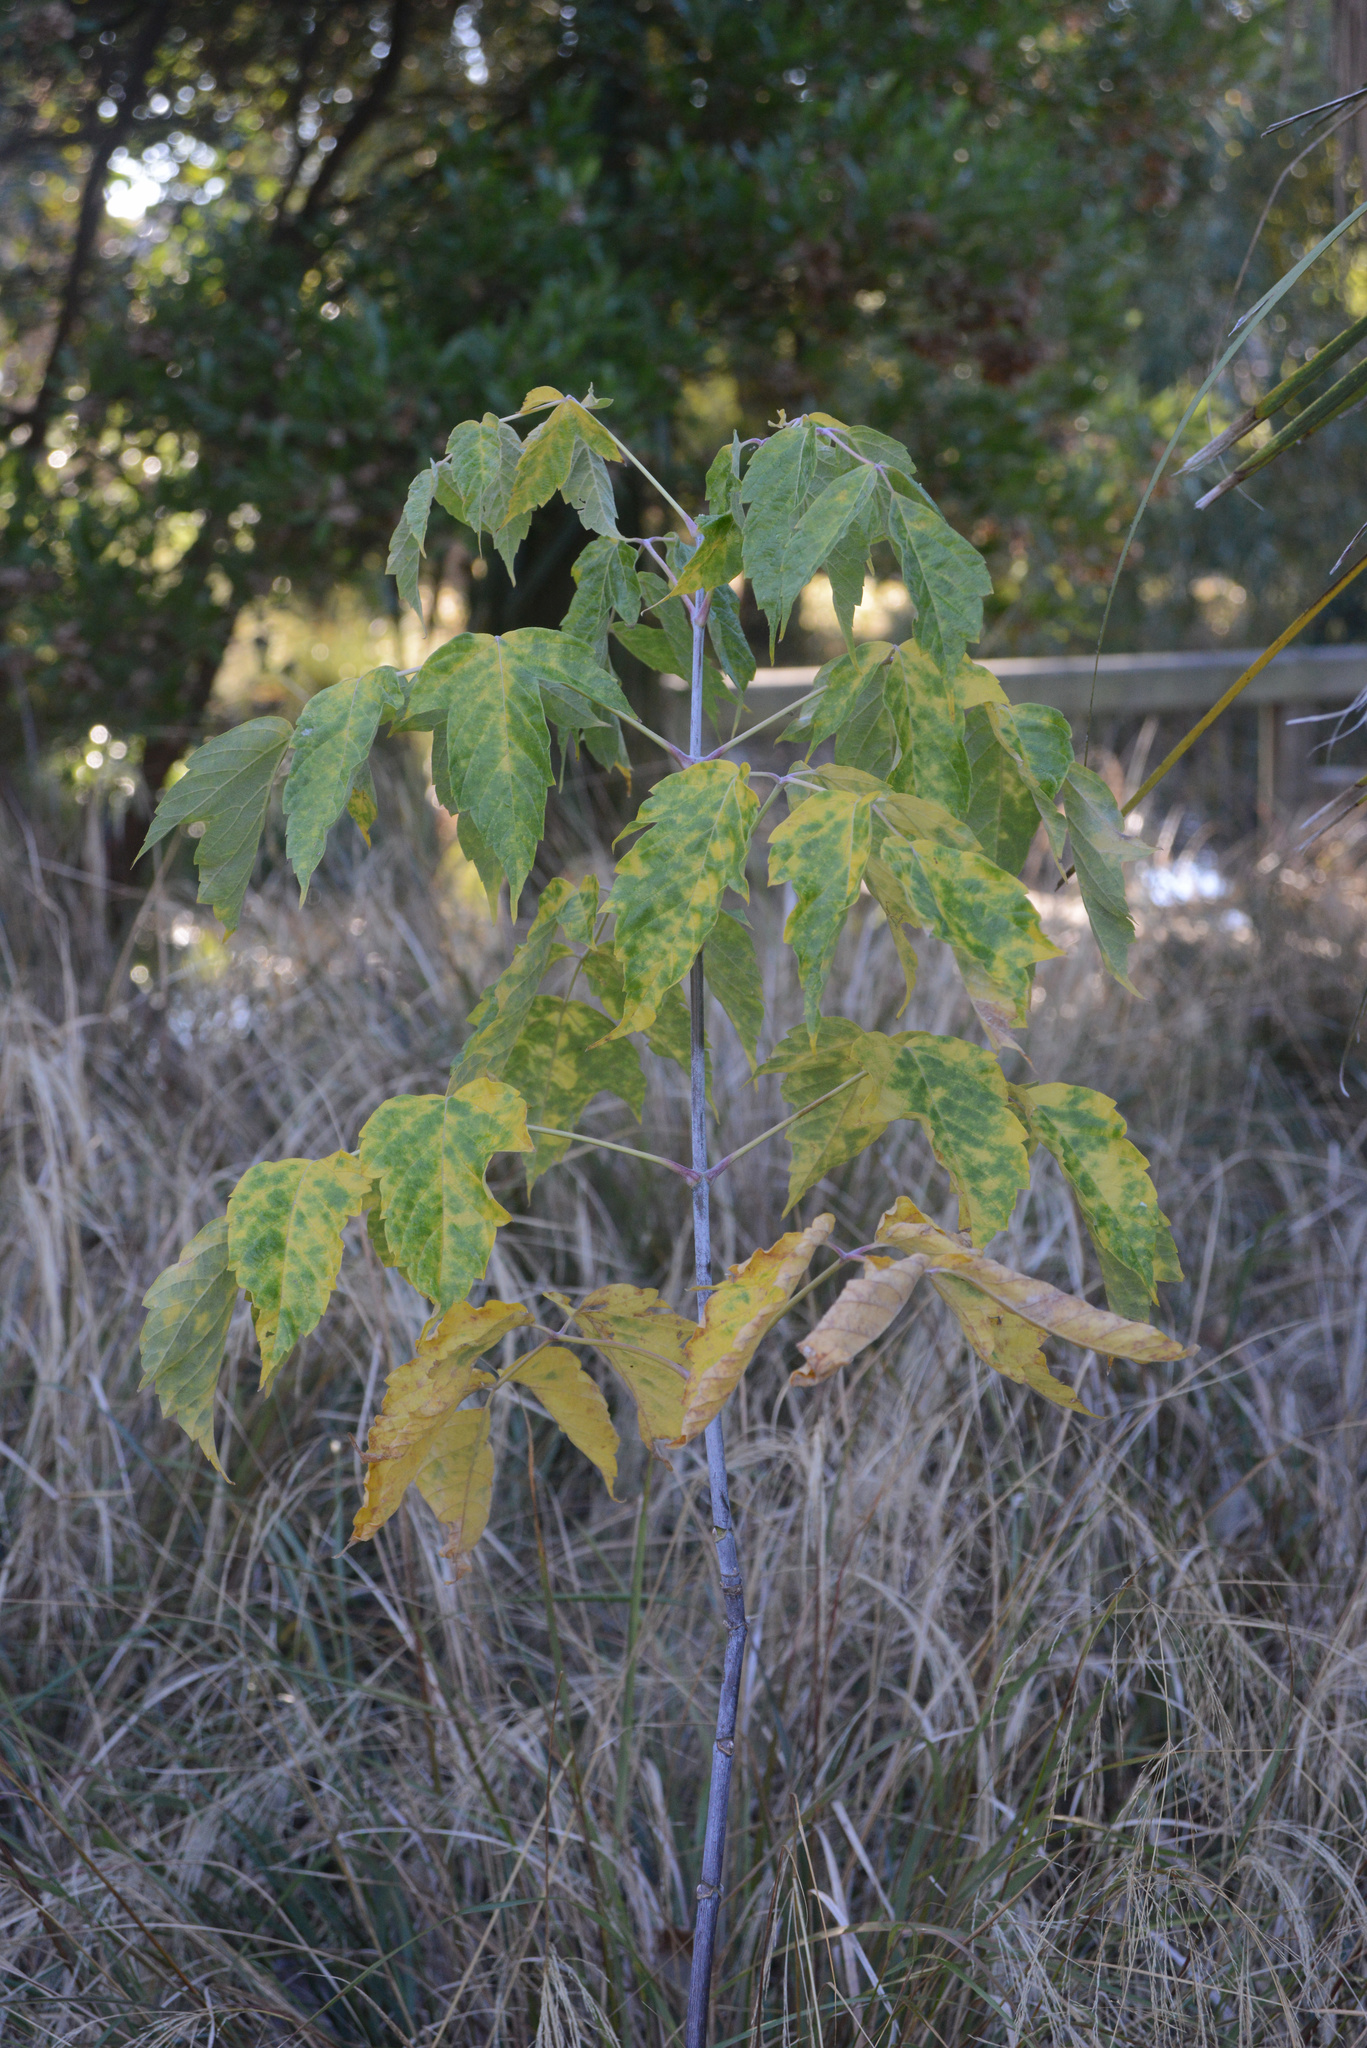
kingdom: Plantae
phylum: Tracheophyta
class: Magnoliopsida
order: Sapindales
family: Sapindaceae
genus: Acer
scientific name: Acer negundo
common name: Ashleaf maple
